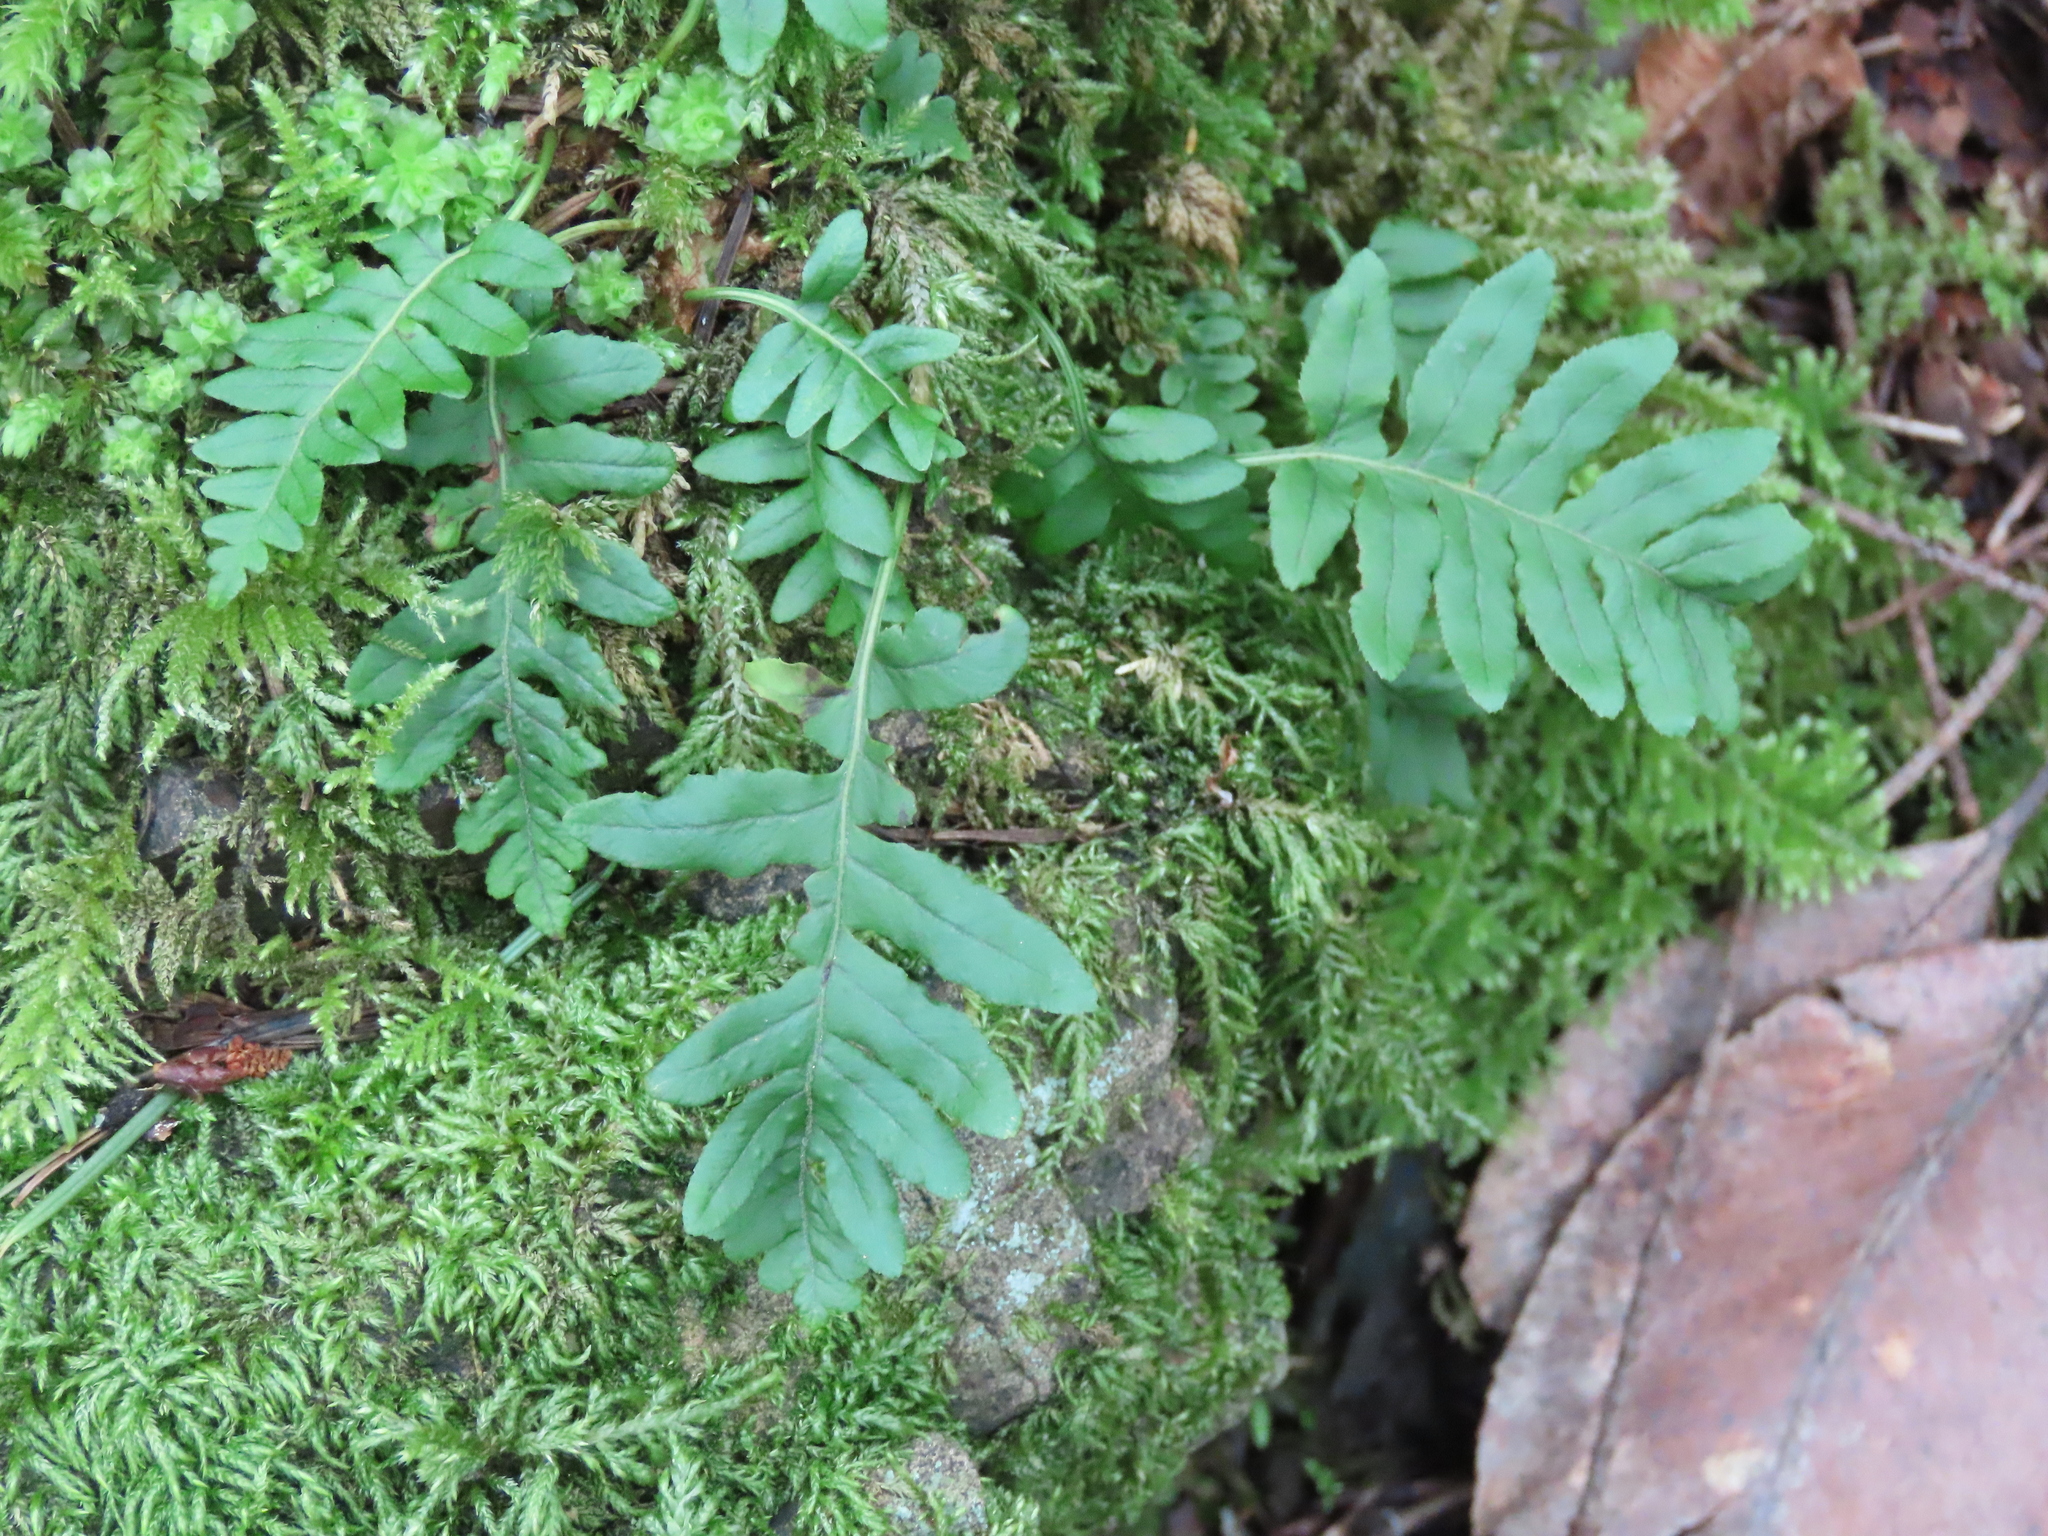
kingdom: Plantae
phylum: Tracheophyta
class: Polypodiopsida
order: Polypodiales
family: Polypodiaceae
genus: Polypodium
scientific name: Polypodium glycyrrhiza
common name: Licorice fern
